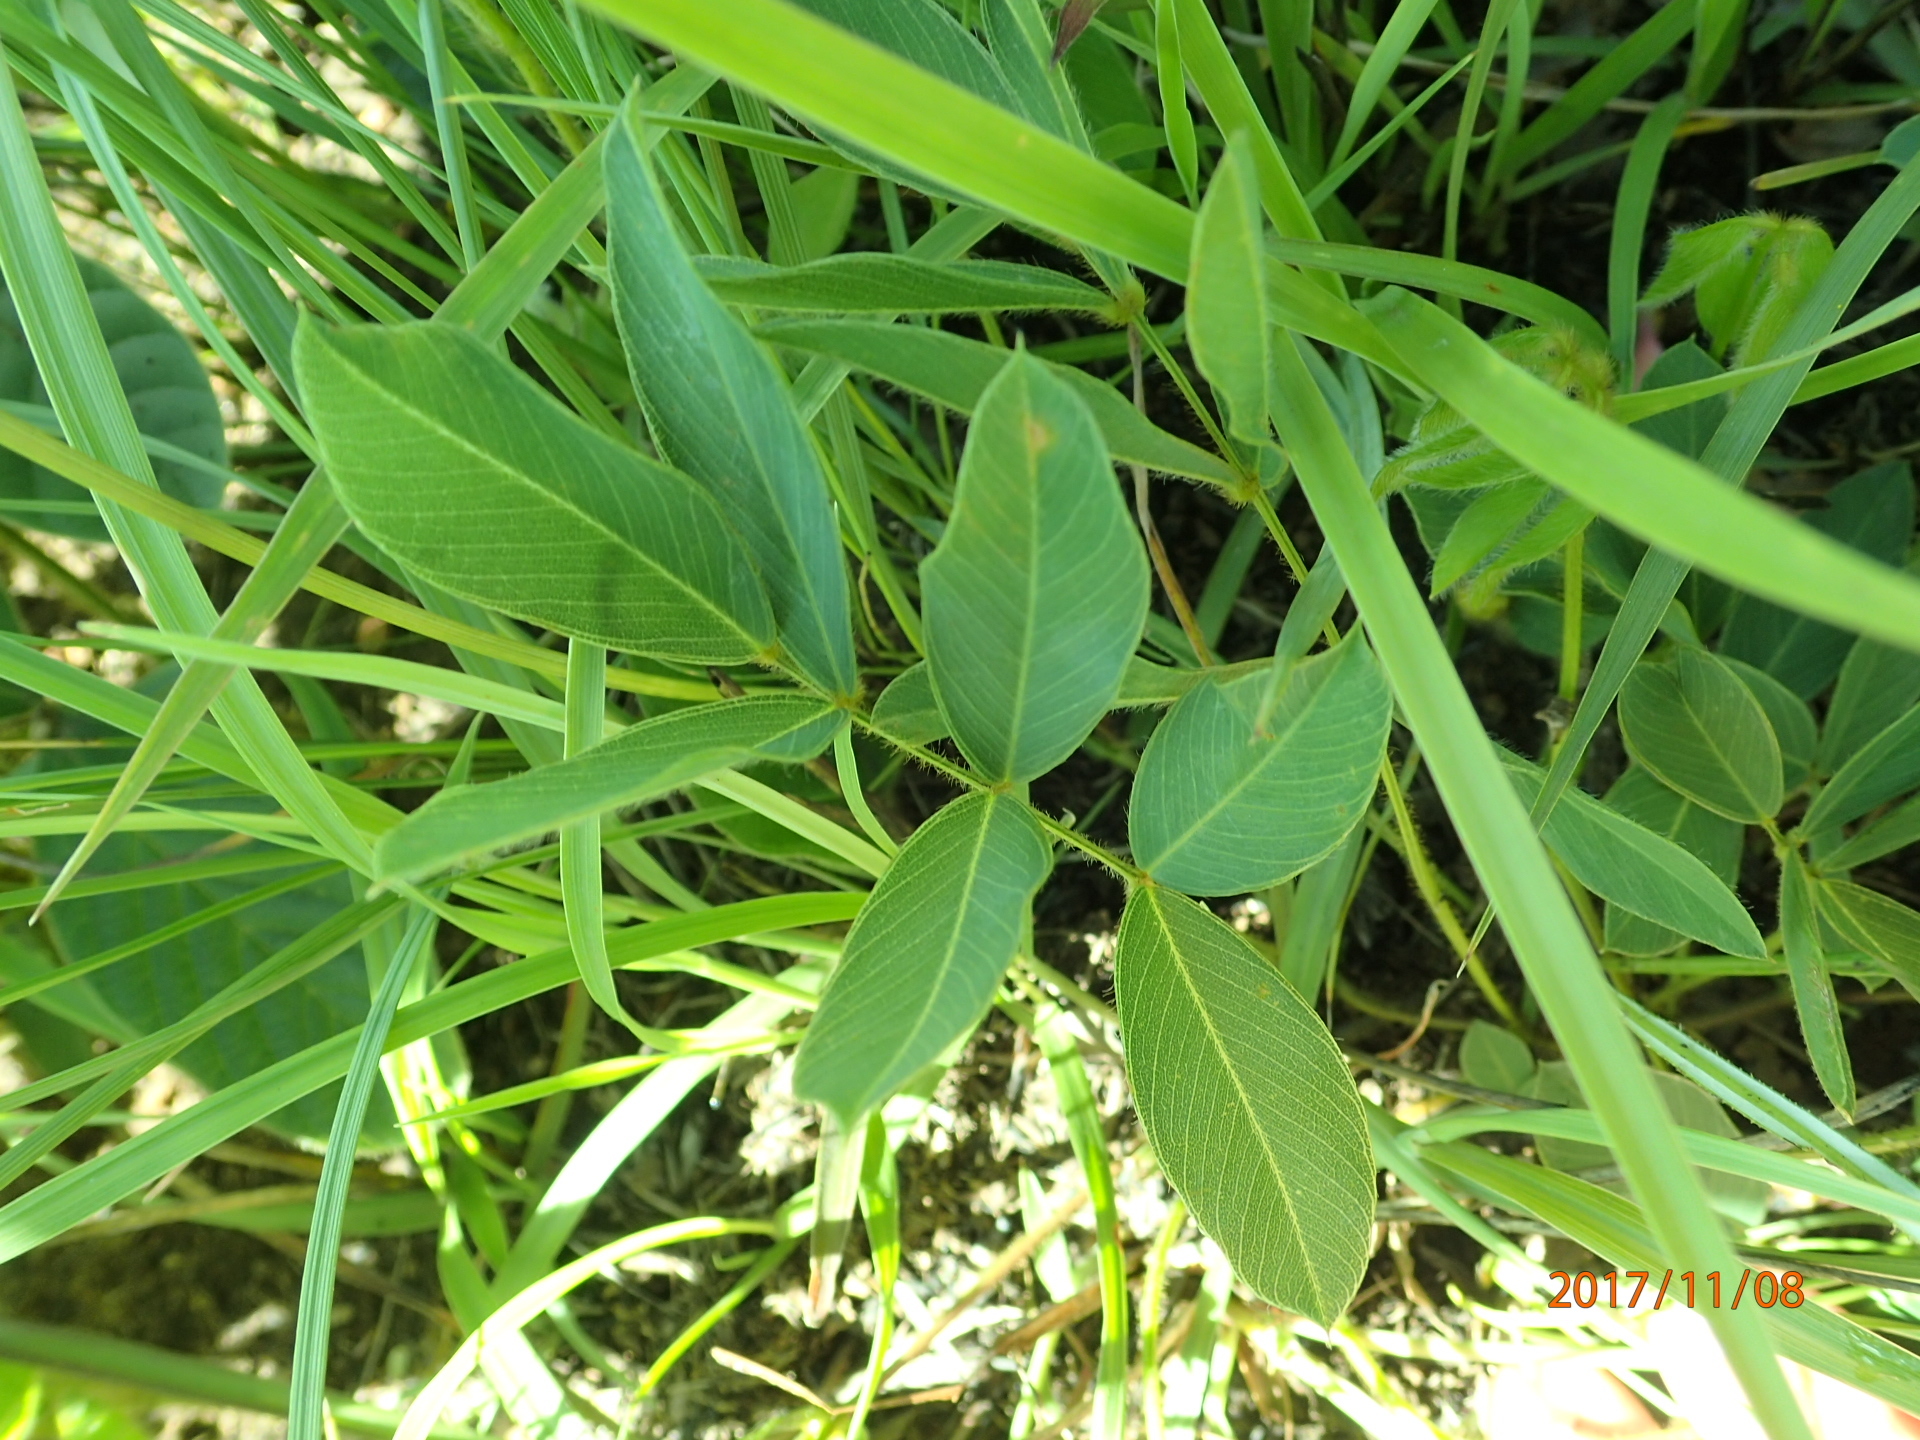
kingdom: Plantae
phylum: Tracheophyta
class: Magnoliopsida
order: Fabales
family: Fabaceae
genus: Tephrosia
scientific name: Tephrosia macropoda
